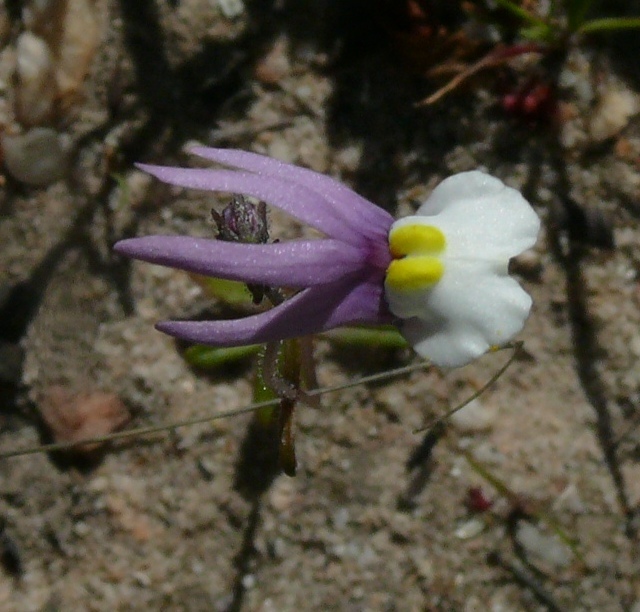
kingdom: Plantae
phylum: Tracheophyta
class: Magnoliopsida
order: Lamiales
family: Scrophulariaceae
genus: Nemesia
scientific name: Nemesia pulchella
